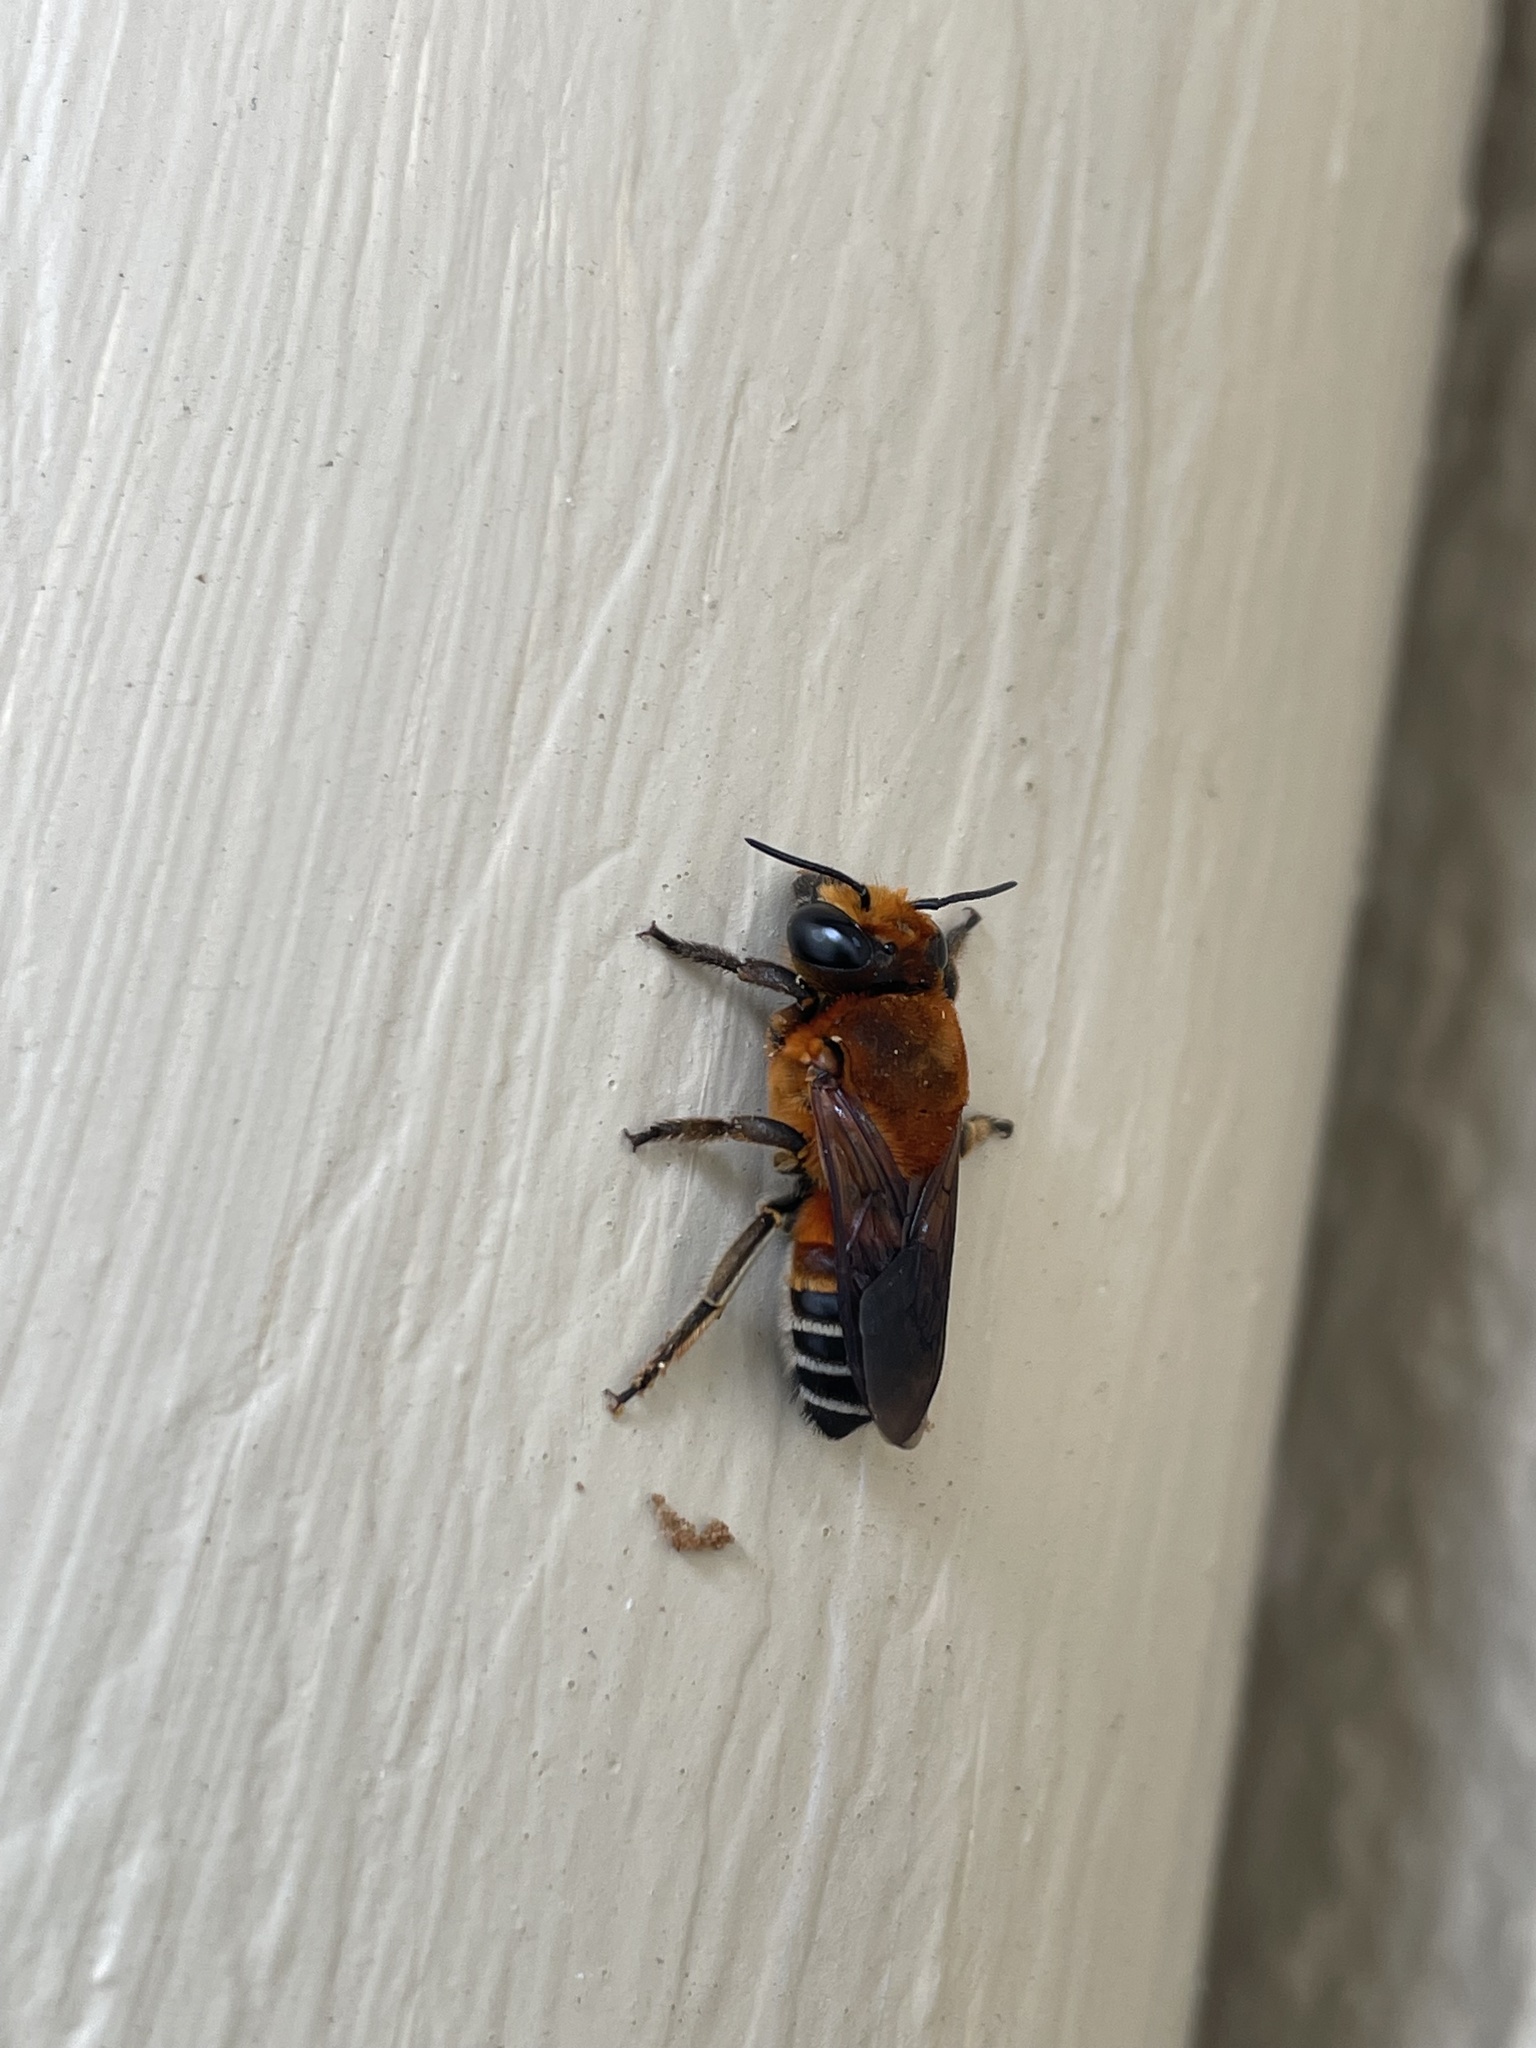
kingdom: Animalia
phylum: Arthropoda
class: Insecta
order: Hymenoptera
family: Megachilidae
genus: Megachile
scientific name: Megachile lanata
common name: Wooly wall bee
